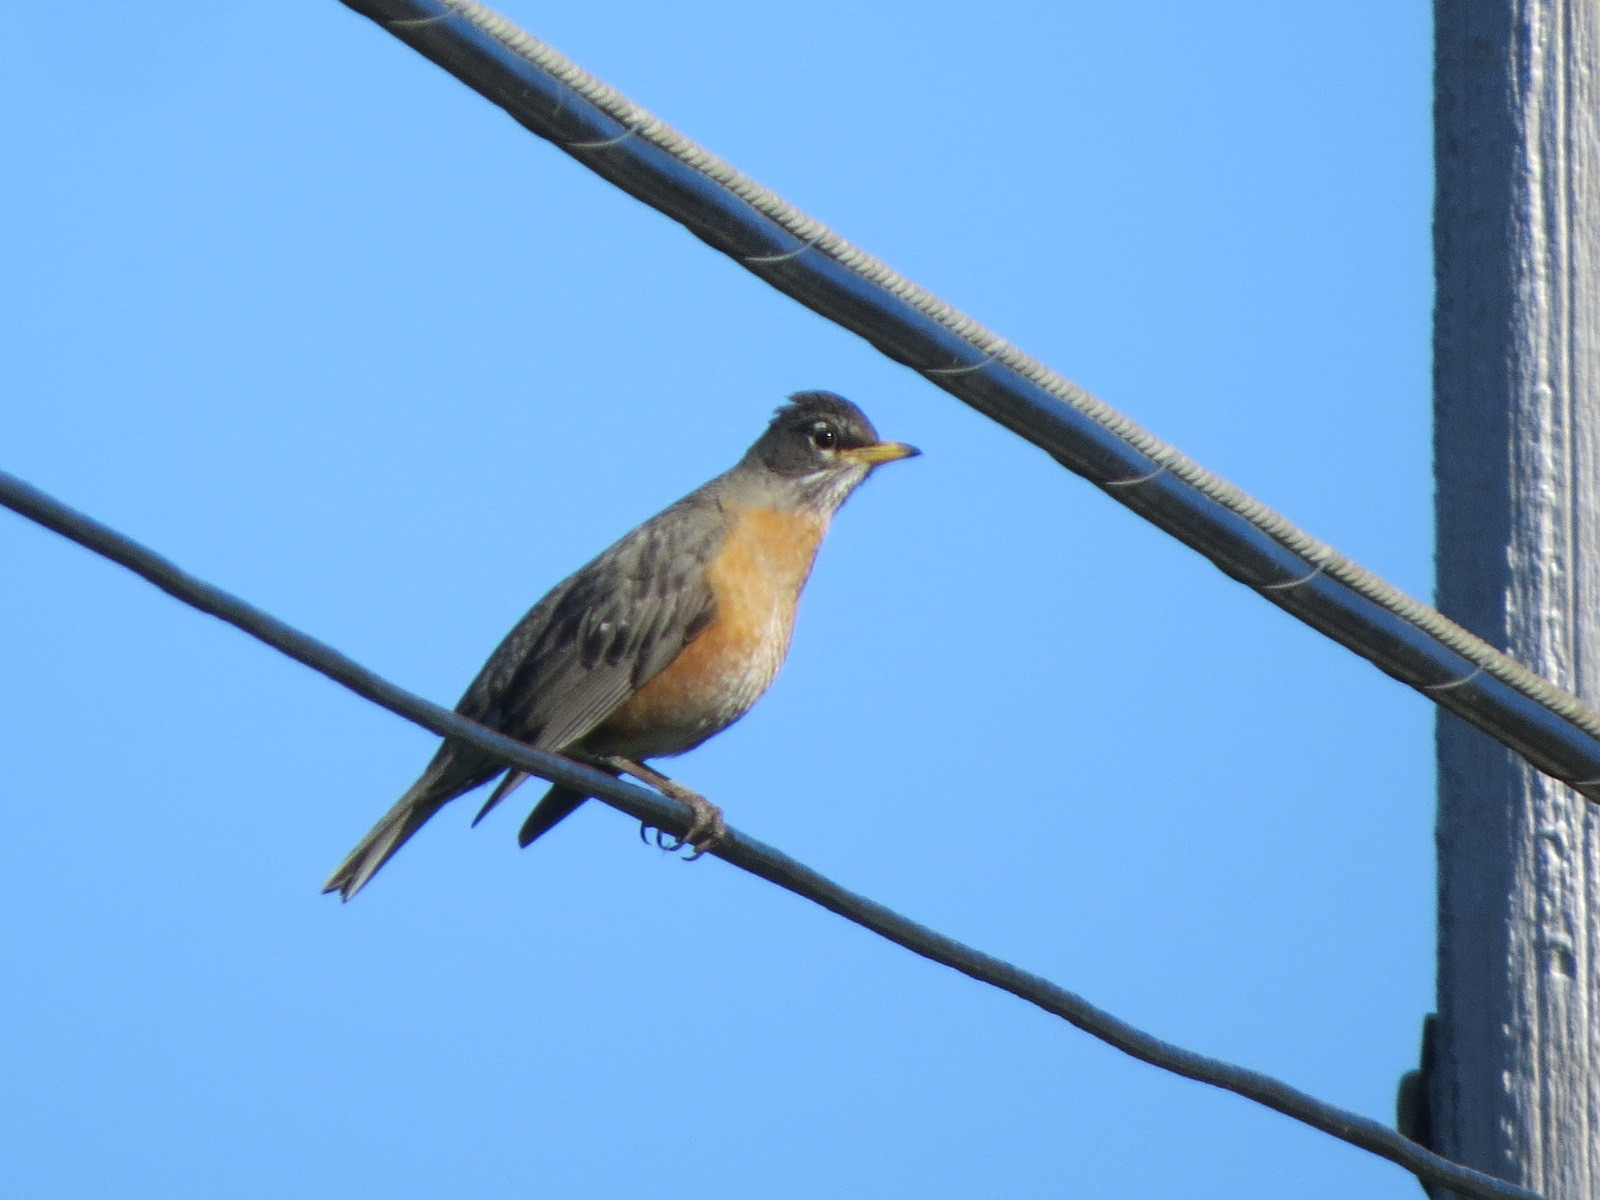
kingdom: Animalia
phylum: Chordata
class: Aves
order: Passeriformes
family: Turdidae
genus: Turdus
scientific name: Turdus migratorius
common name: American robin
